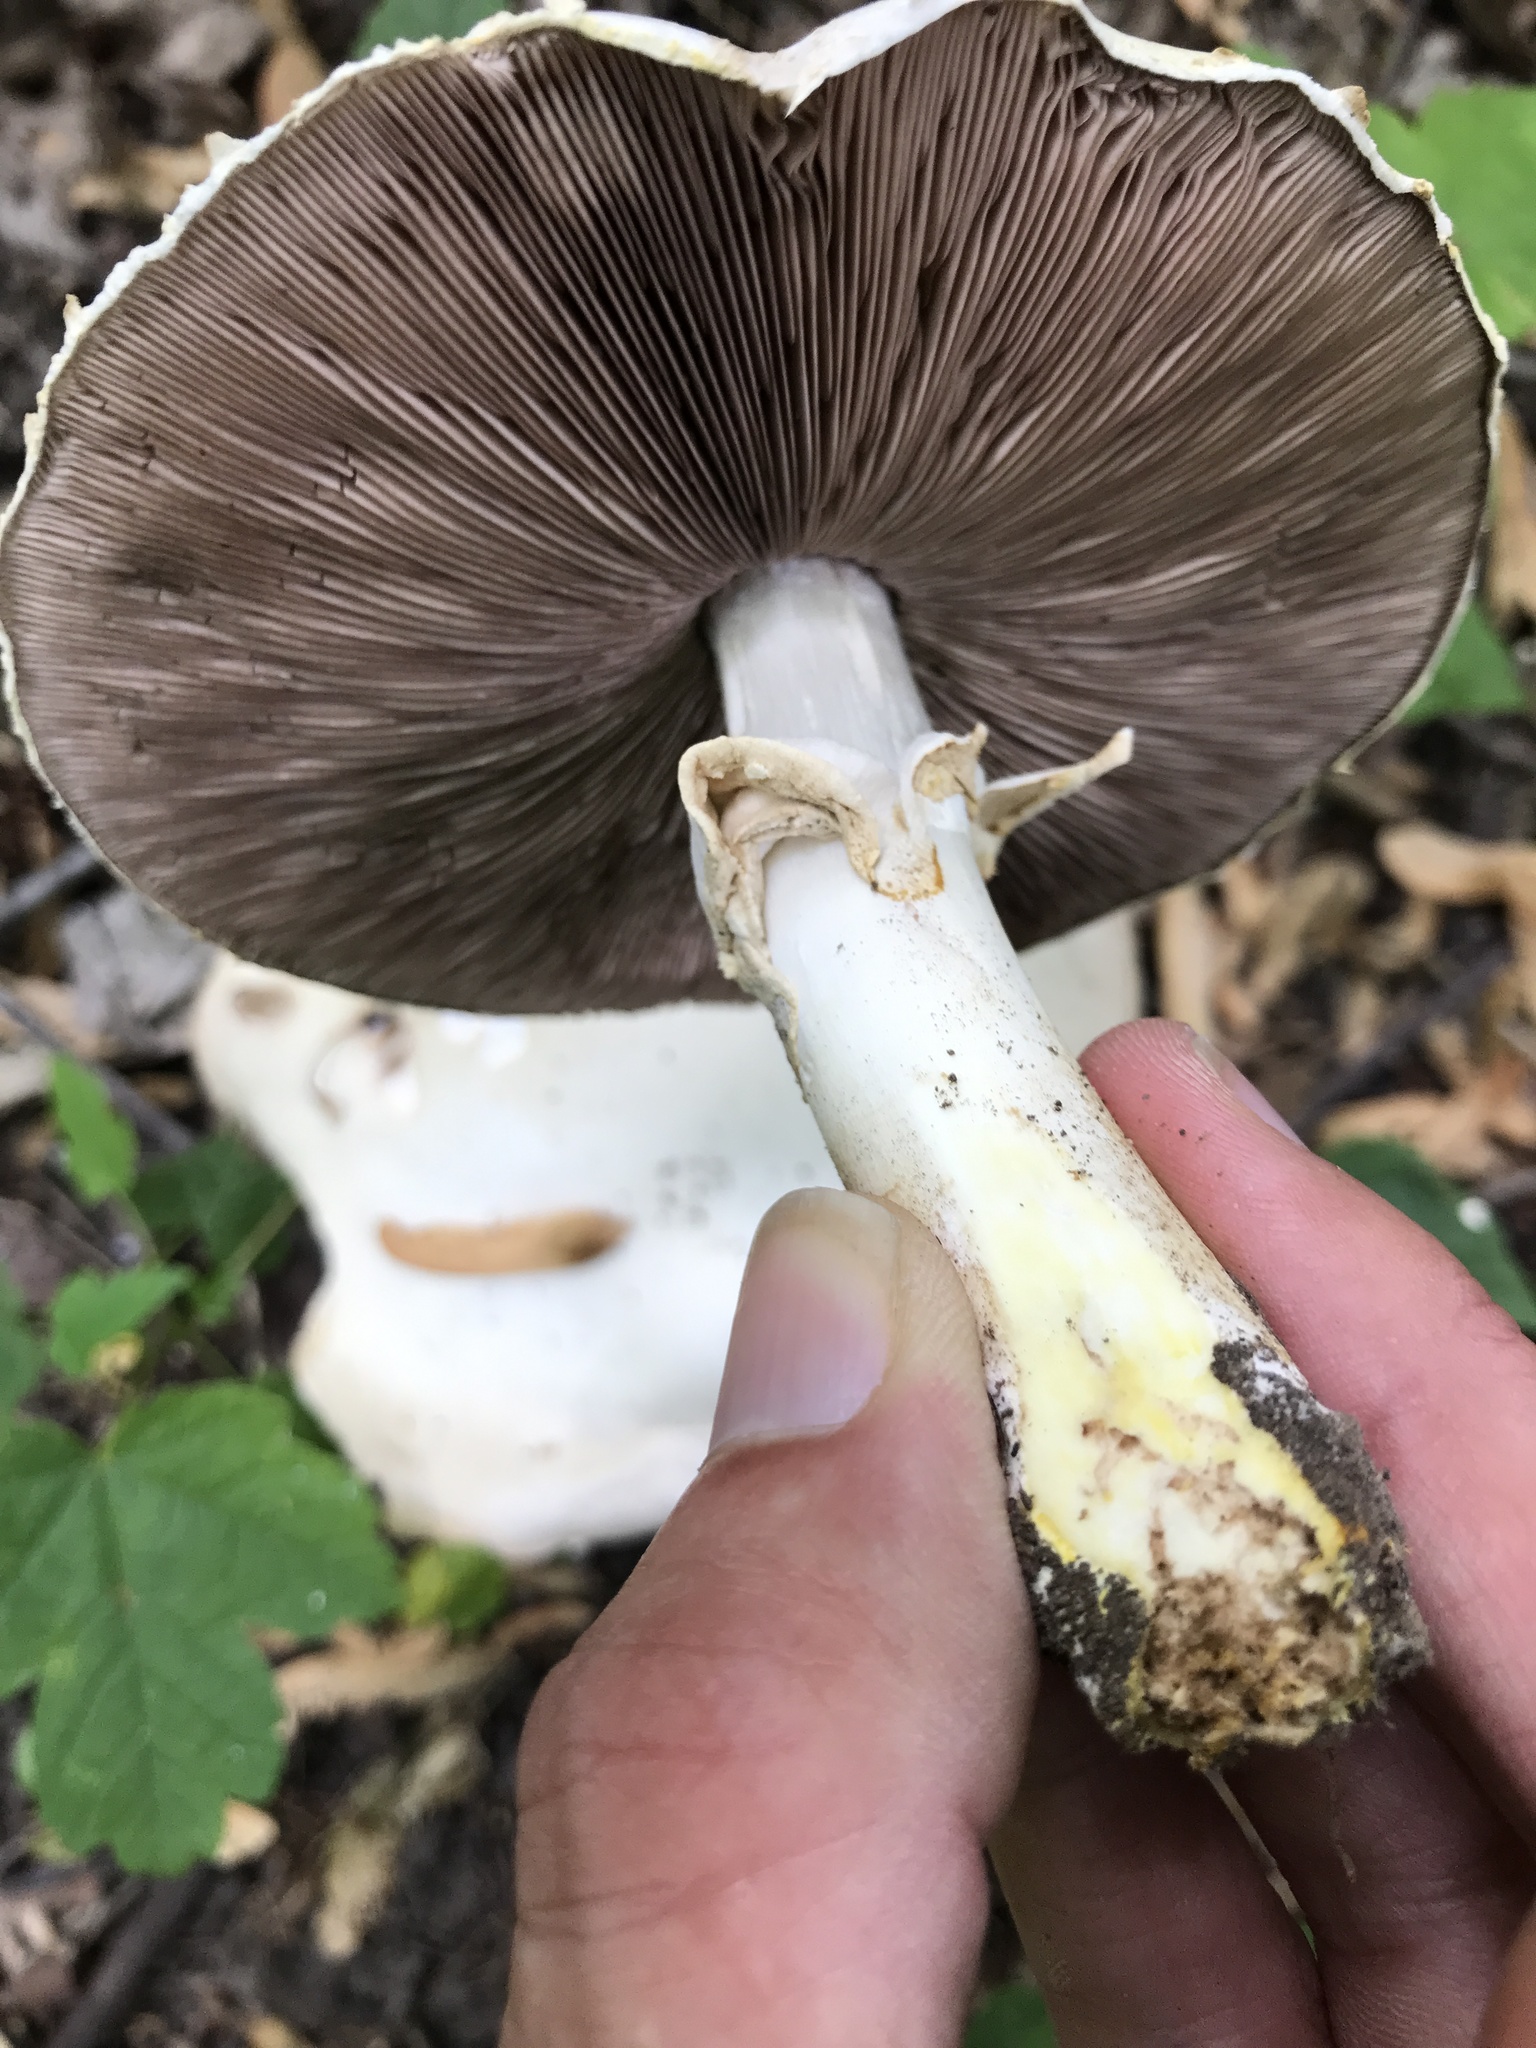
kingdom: Fungi
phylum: Basidiomycota
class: Agaricomycetes
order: Agaricales
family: Agaricaceae
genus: Agaricus
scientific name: Agaricus xanthodermus
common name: Yellow stainer
